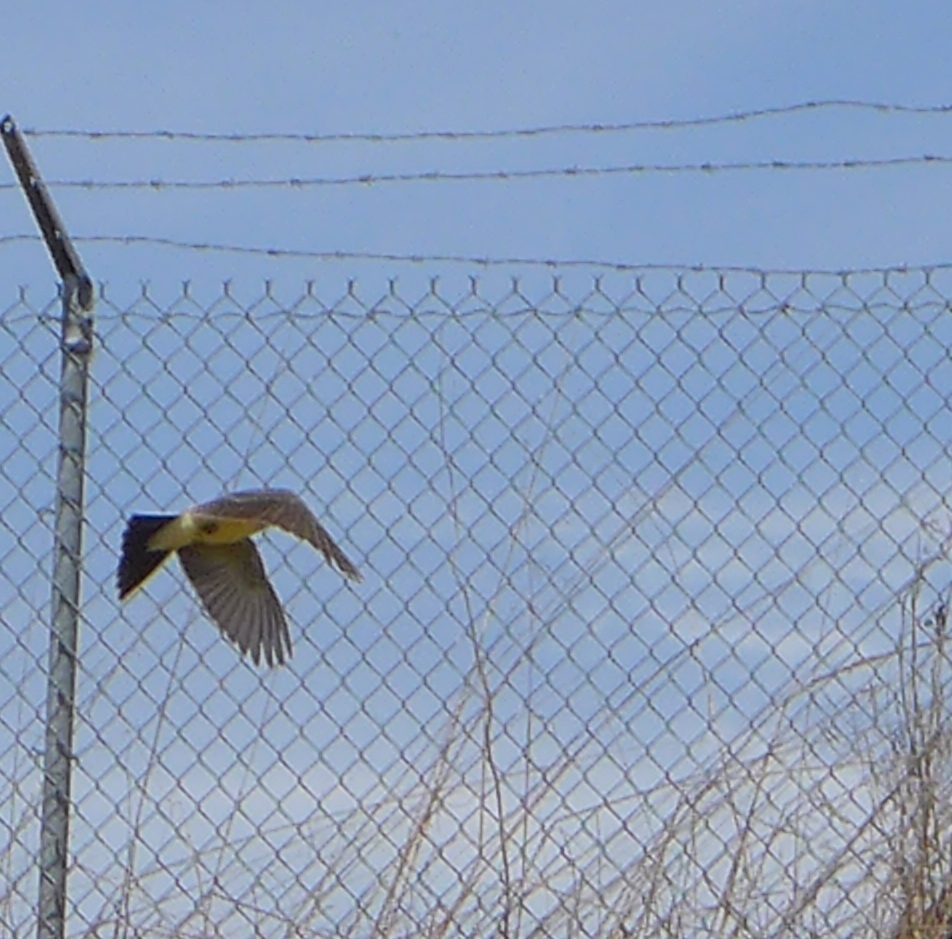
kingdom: Animalia
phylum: Chordata
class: Aves
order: Passeriformes
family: Tyrannidae
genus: Tyrannus
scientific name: Tyrannus verticalis
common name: Western kingbird
